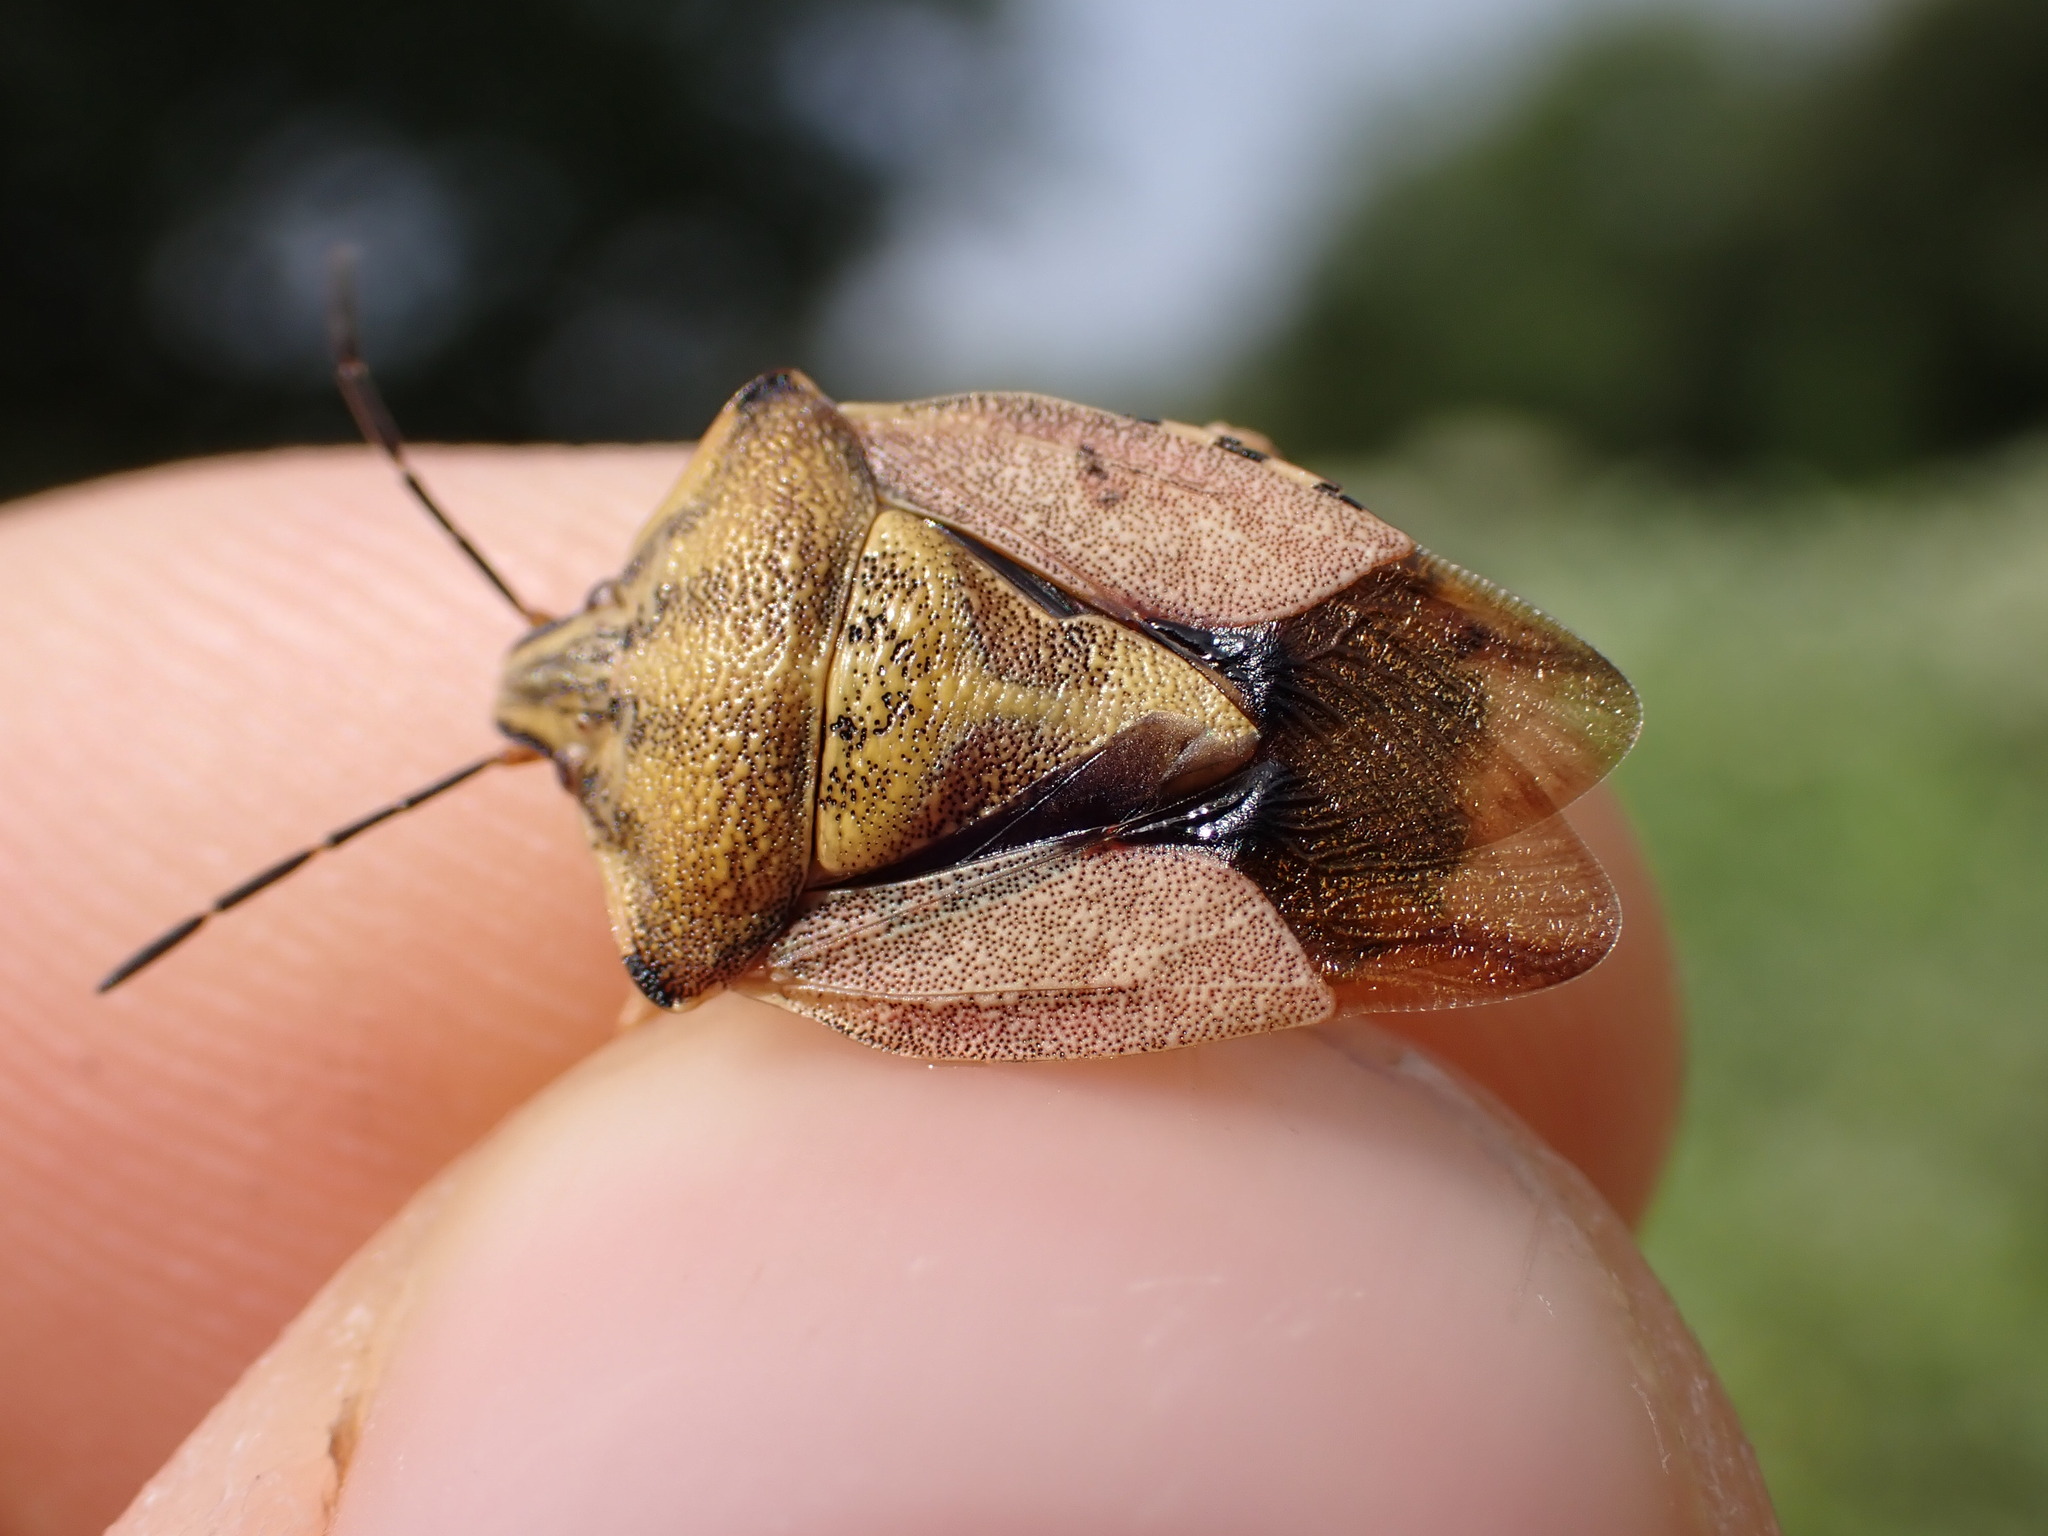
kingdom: Animalia
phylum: Arthropoda
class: Insecta
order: Hemiptera
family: Pentatomidae
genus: Carpocoris
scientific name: Carpocoris purpureipennis
